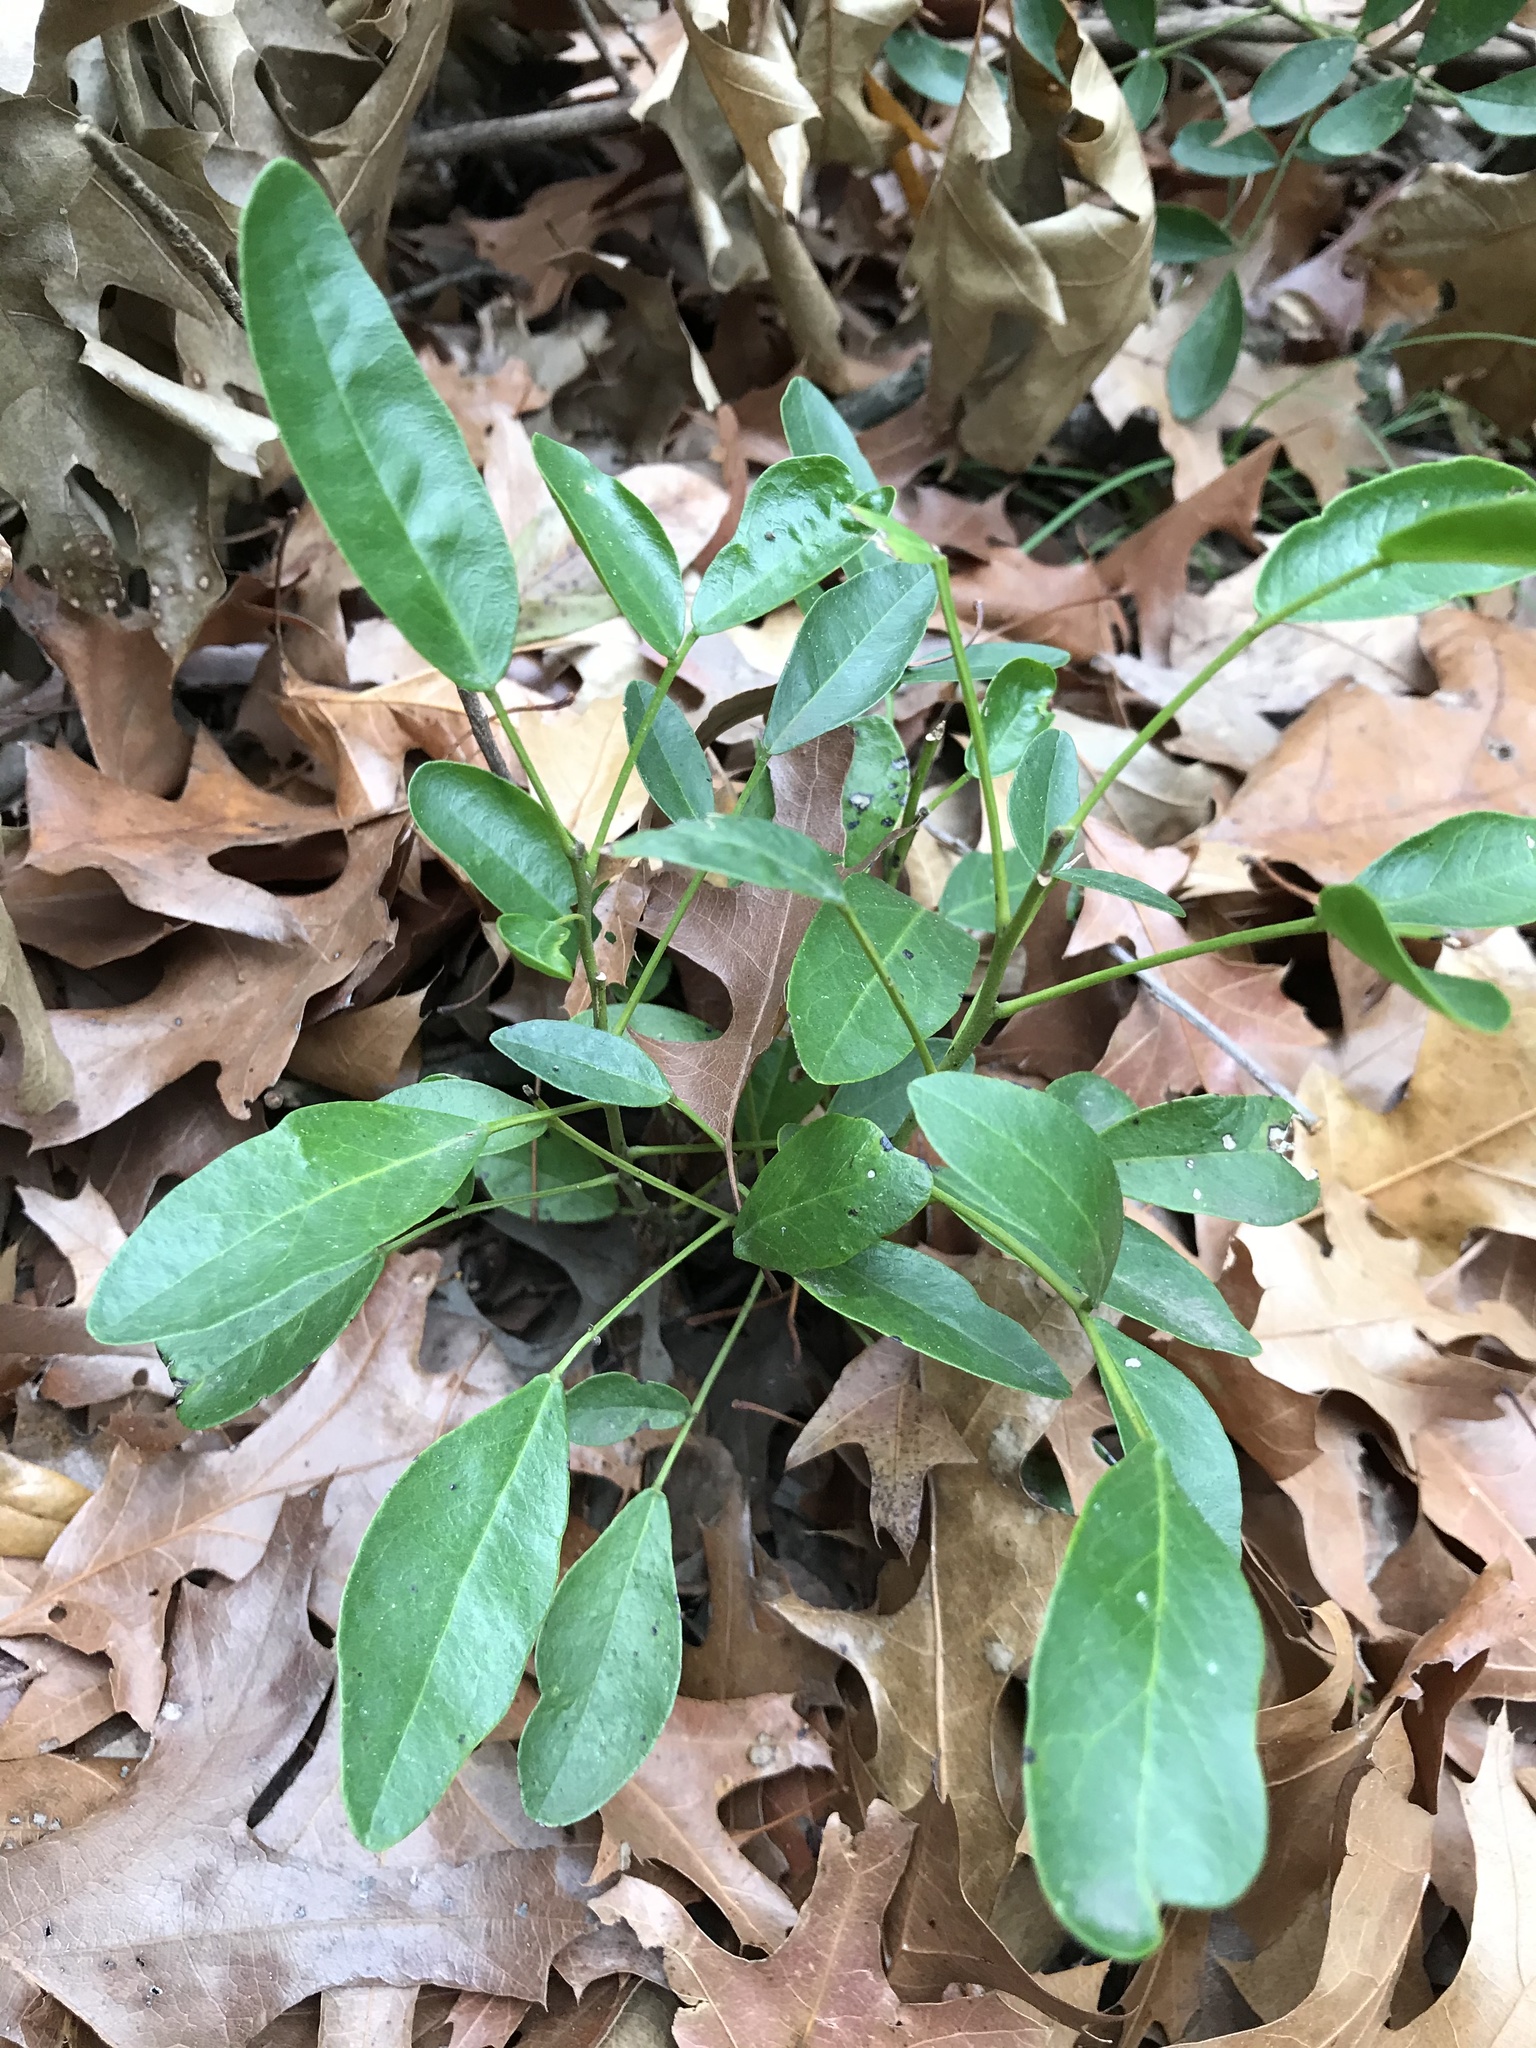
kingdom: Plantae
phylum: Tracheophyta
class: Magnoliopsida
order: Fabales
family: Fabaceae
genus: Dermatophyllum
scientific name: Dermatophyllum secundiflorum
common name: Texas-mountain-laurel
